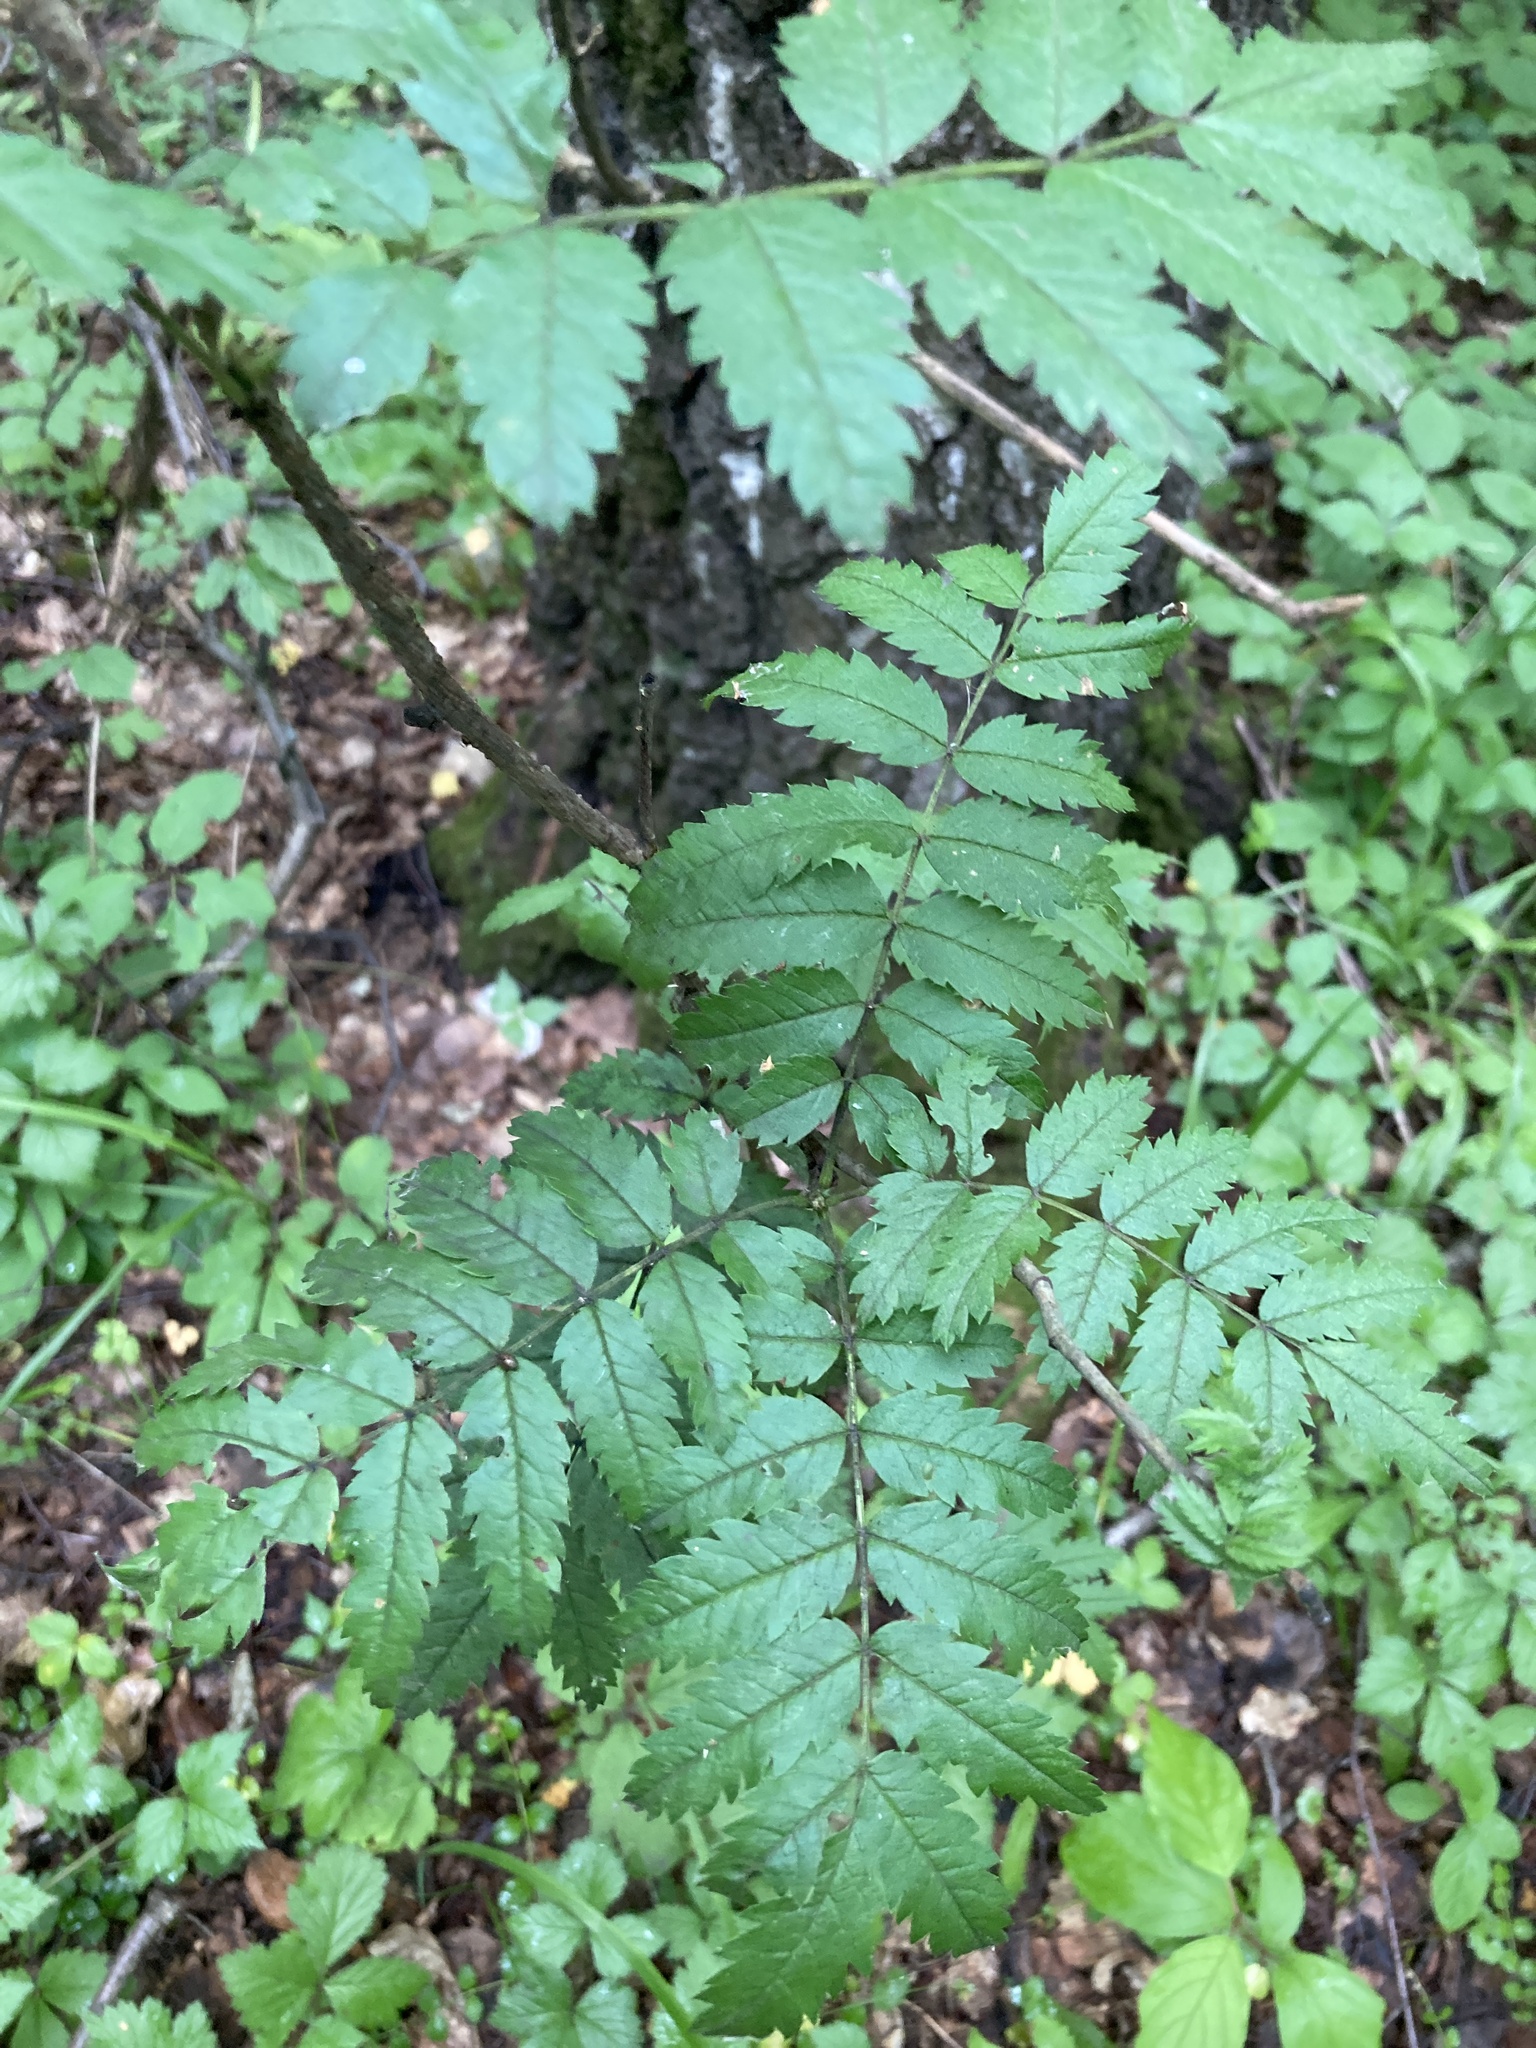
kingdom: Plantae
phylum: Tracheophyta
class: Magnoliopsida
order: Rosales
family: Rosaceae
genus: Sorbus
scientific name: Sorbus aucuparia
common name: Rowan
